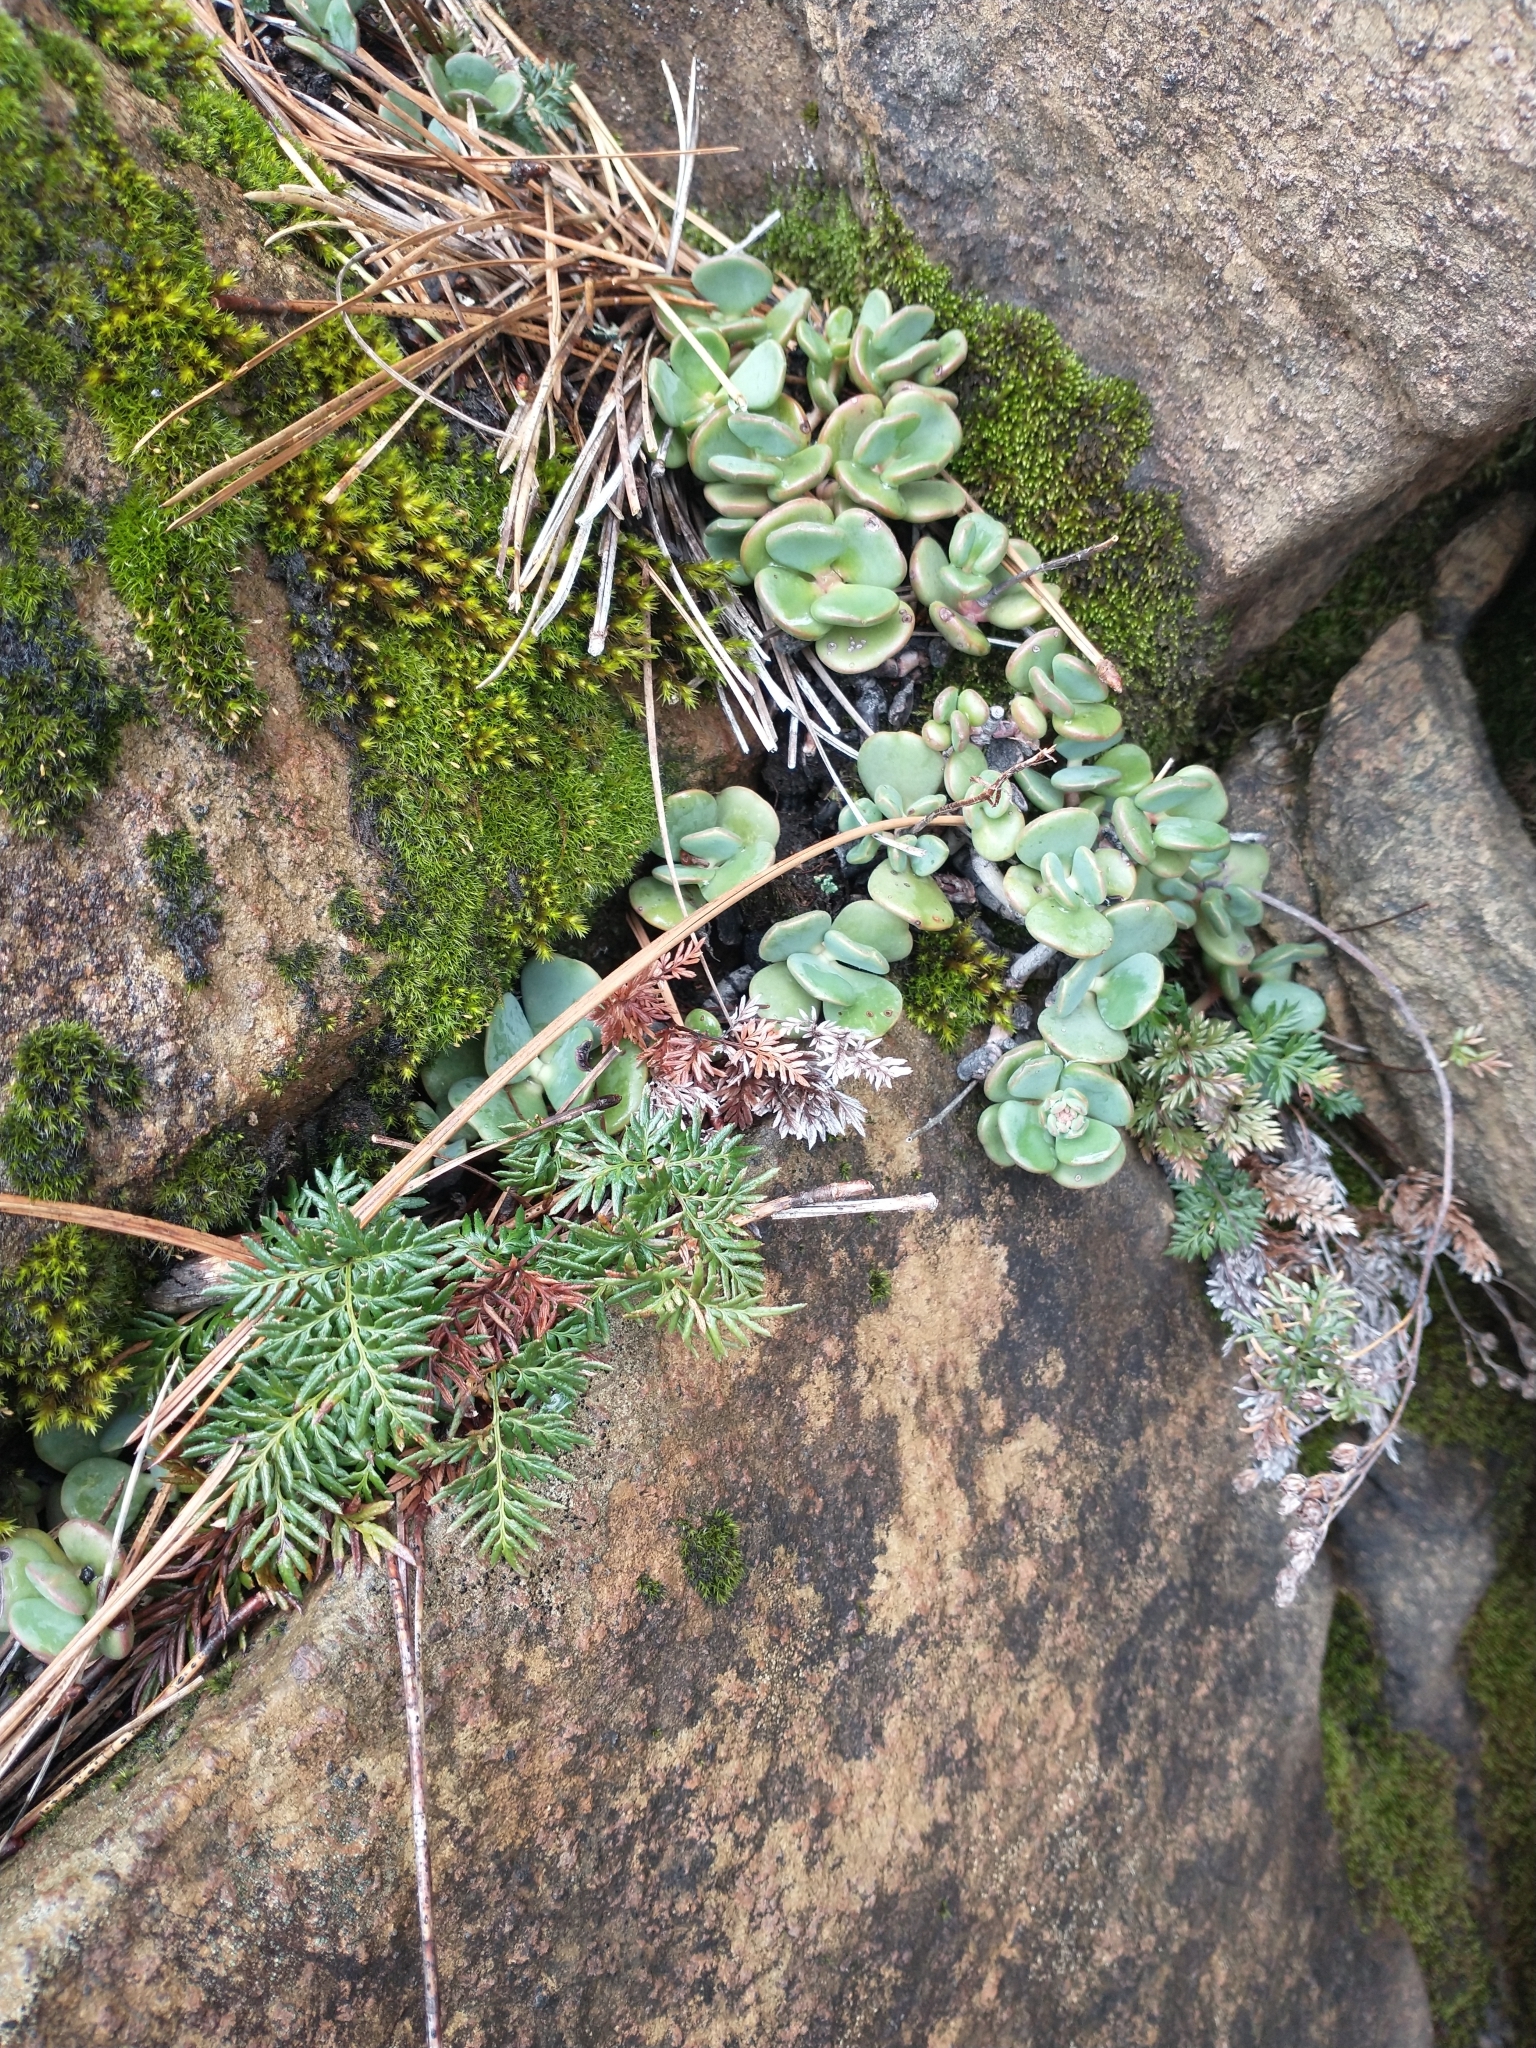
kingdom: Plantae
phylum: Tracheophyta
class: Polypodiopsida
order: Polypodiales
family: Pteridaceae
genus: Aspidotis
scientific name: Aspidotis densa
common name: Indian's dream
